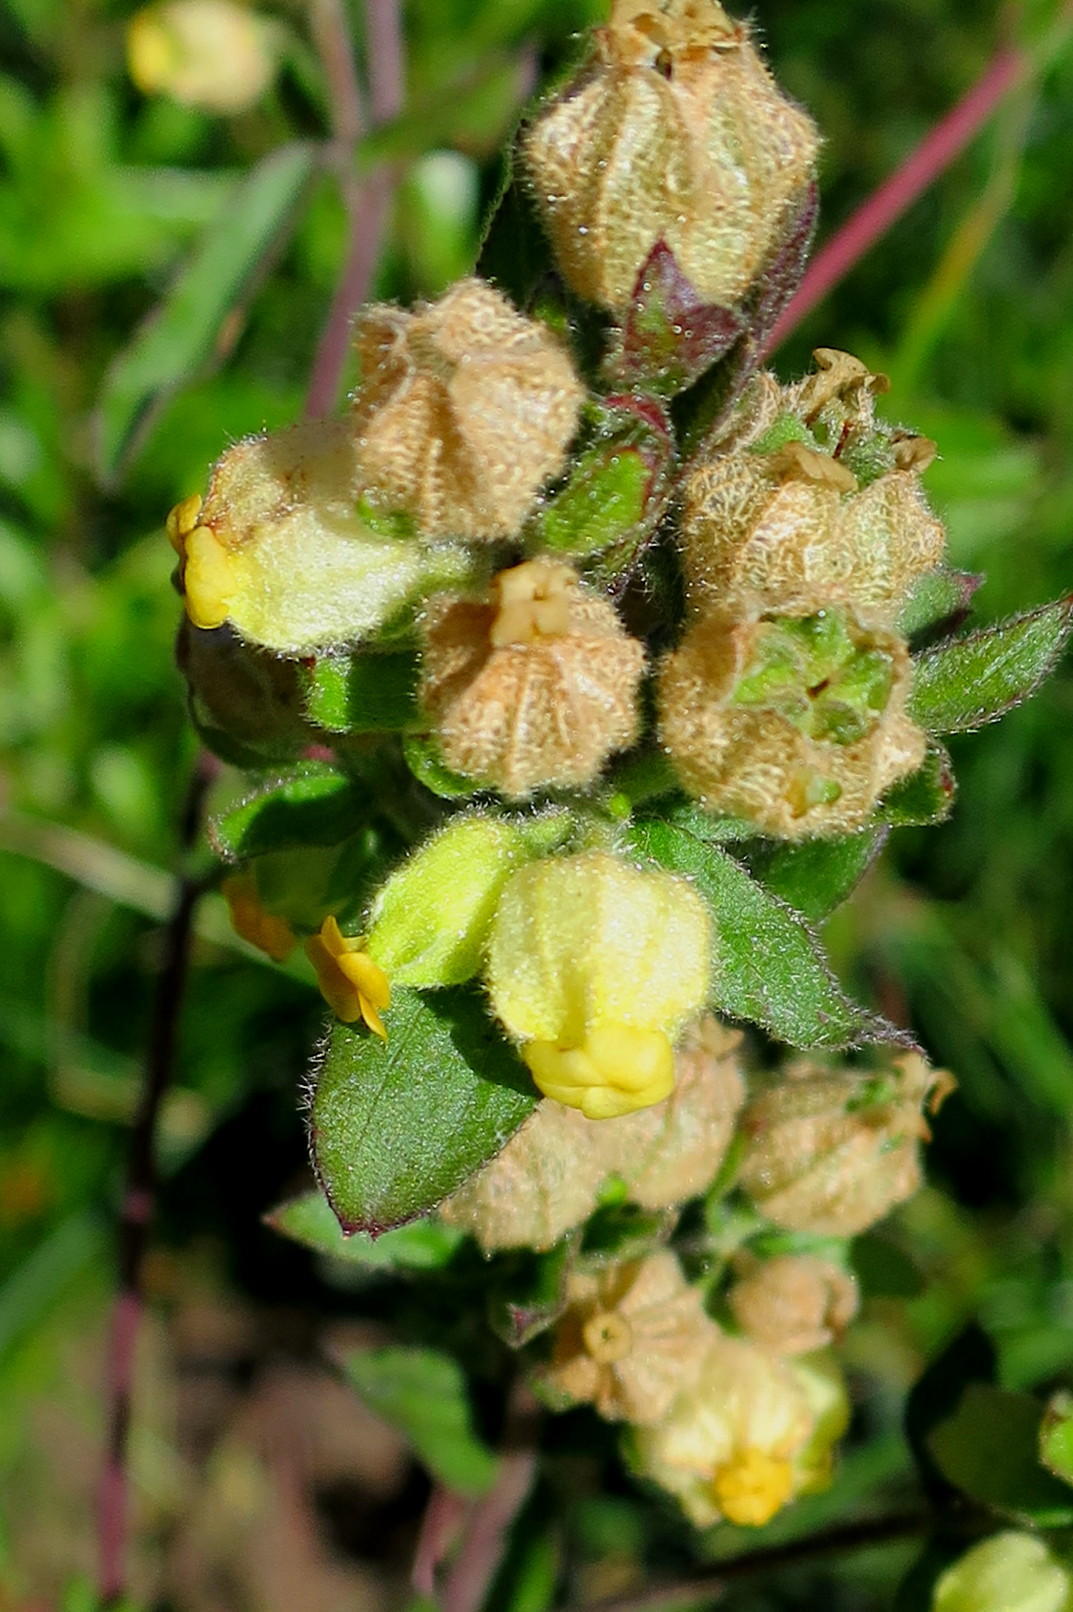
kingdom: Plantae
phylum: Tracheophyta
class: Magnoliopsida
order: Malvales
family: Malvaceae
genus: Hermannia
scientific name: Hermannia hyssopifolia
